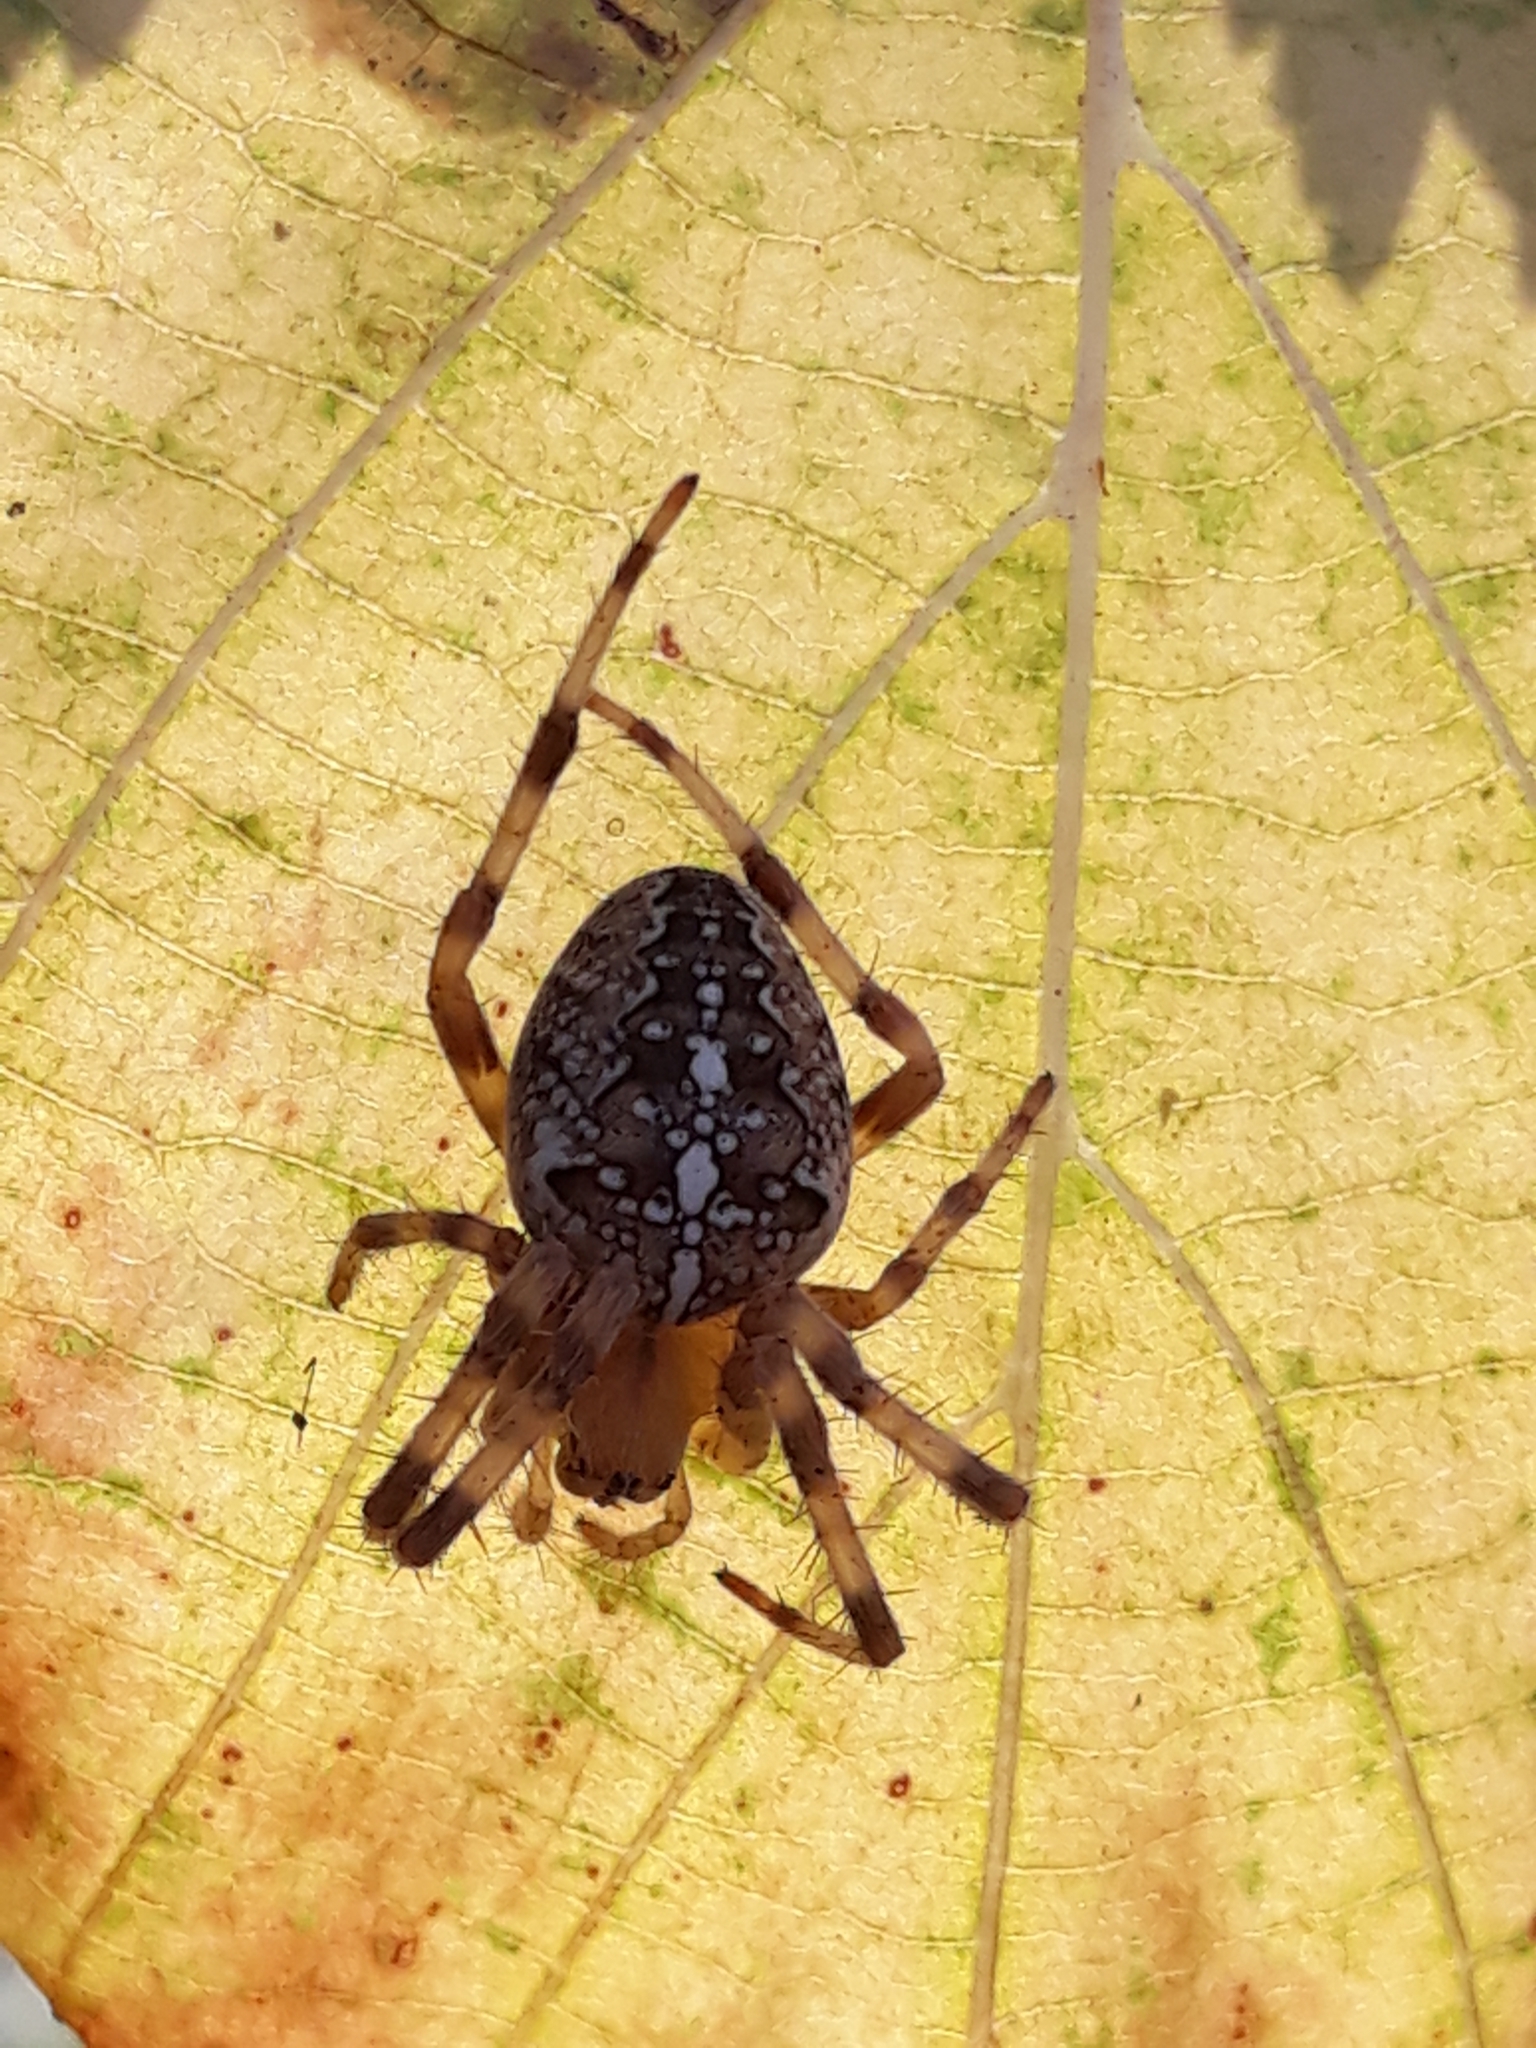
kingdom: Animalia
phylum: Arthropoda
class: Arachnida
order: Araneae
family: Araneidae
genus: Araneus
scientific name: Araneus diadematus
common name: Cross orbweaver
